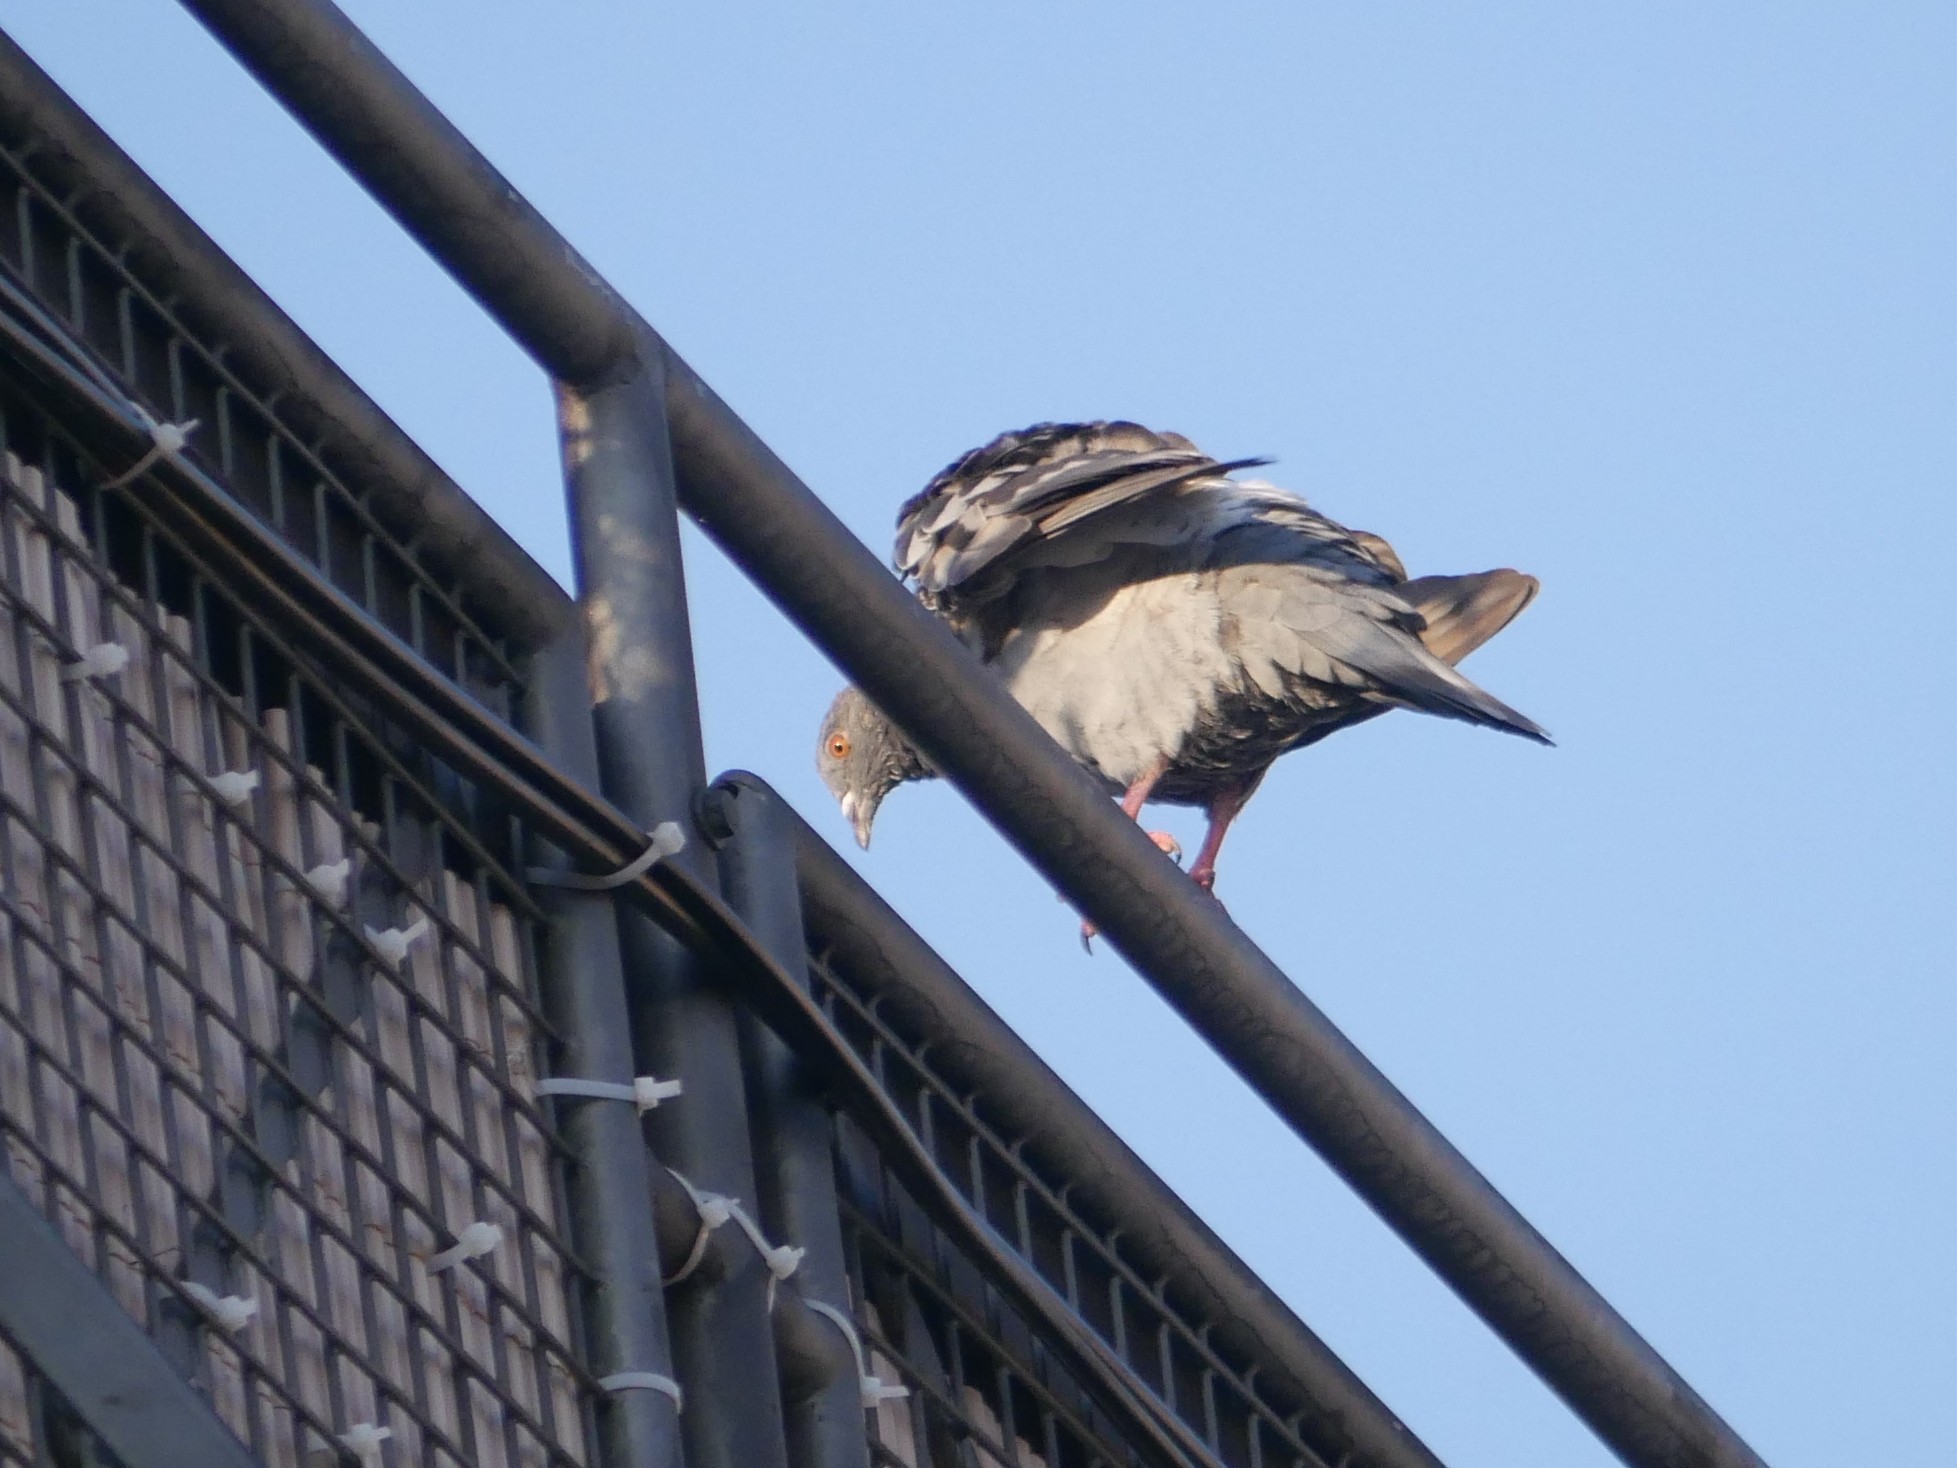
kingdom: Animalia
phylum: Chordata
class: Aves
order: Columbiformes
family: Columbidae
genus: Columba
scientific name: Columba livia
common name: Rock pigeon
